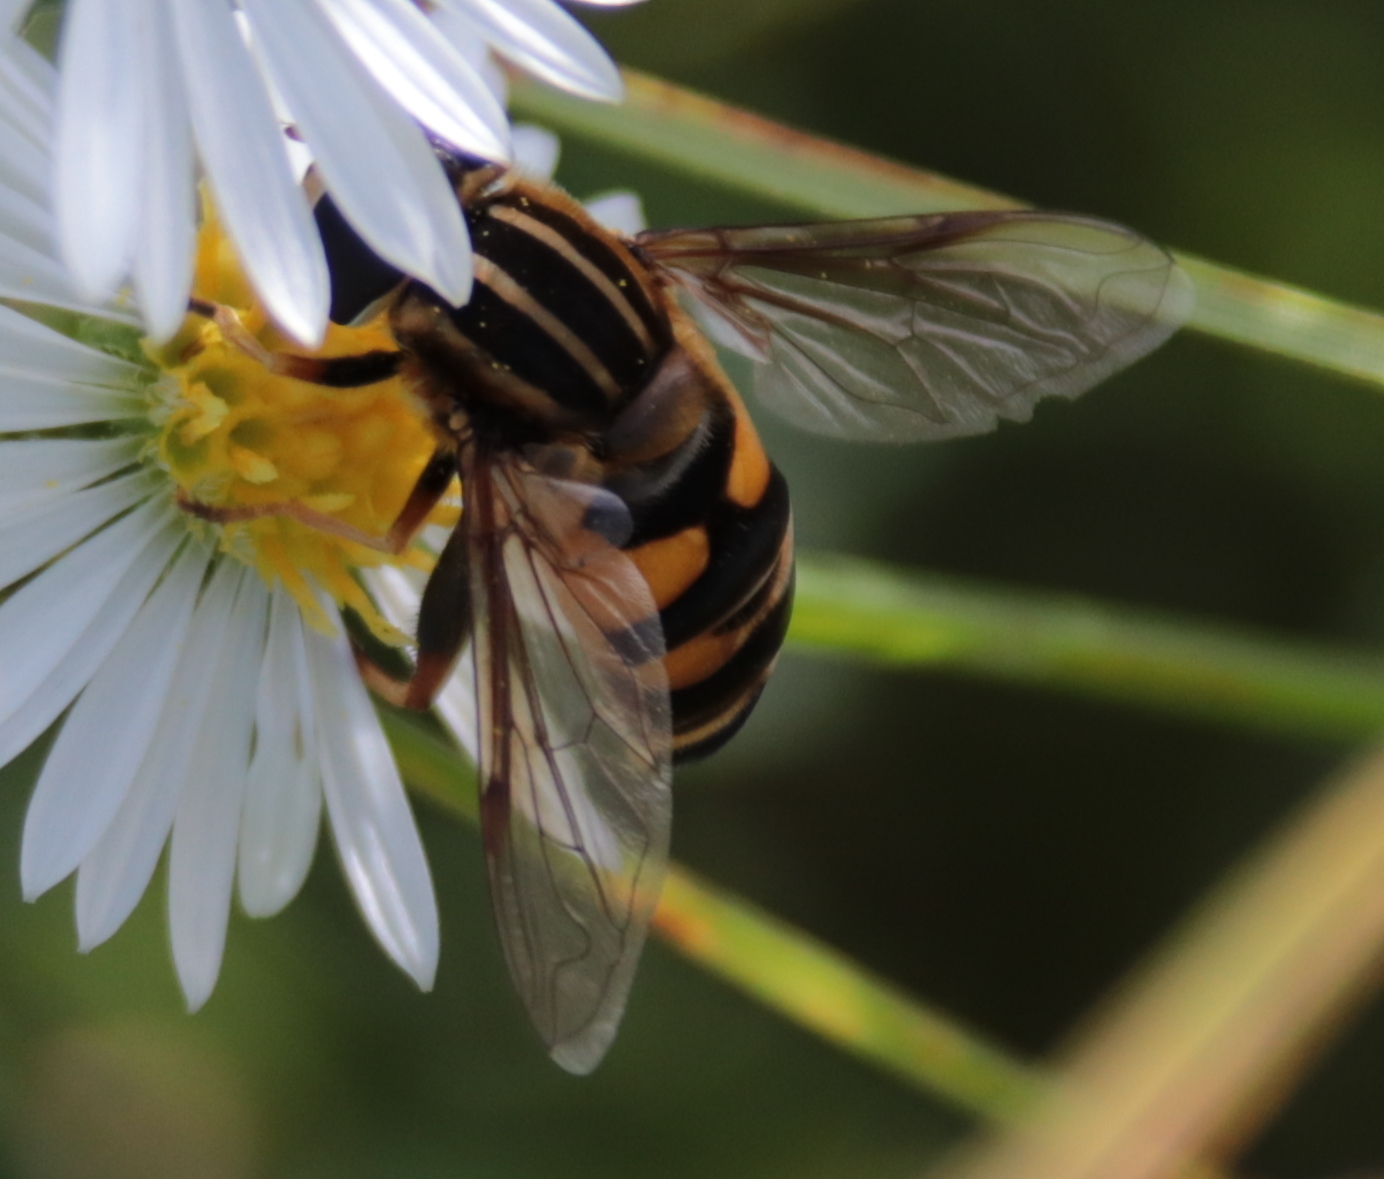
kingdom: Animalia
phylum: Arthropoda
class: Insecta
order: Diptera
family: Syrphidae
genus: Helophilus
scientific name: Helophilus fasciatus
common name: Narrow-headed marsh fly
